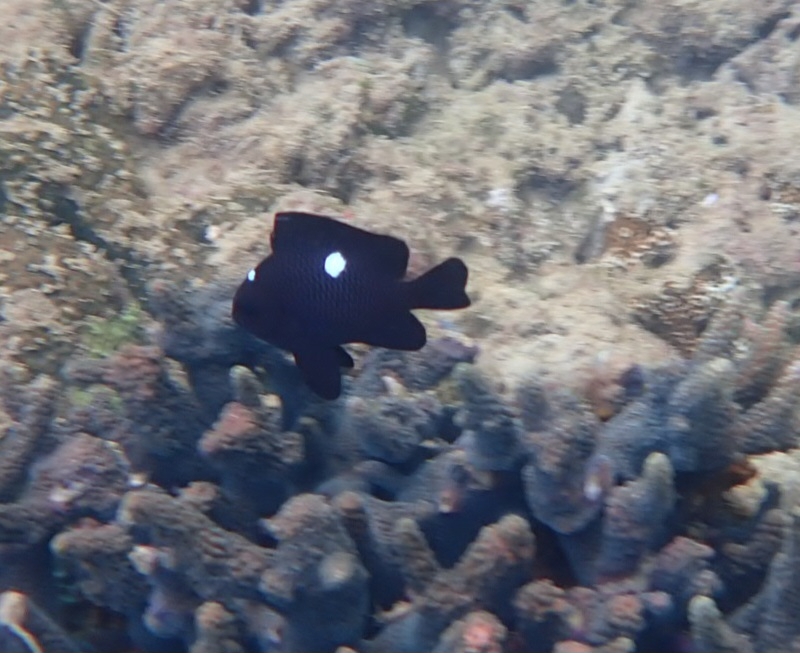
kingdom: Animalia
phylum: Chordata
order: Perciformes
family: Pomacentridae
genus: Dascyllus
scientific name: Dascyllus trimaculatus
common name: Threespot dascyllus
